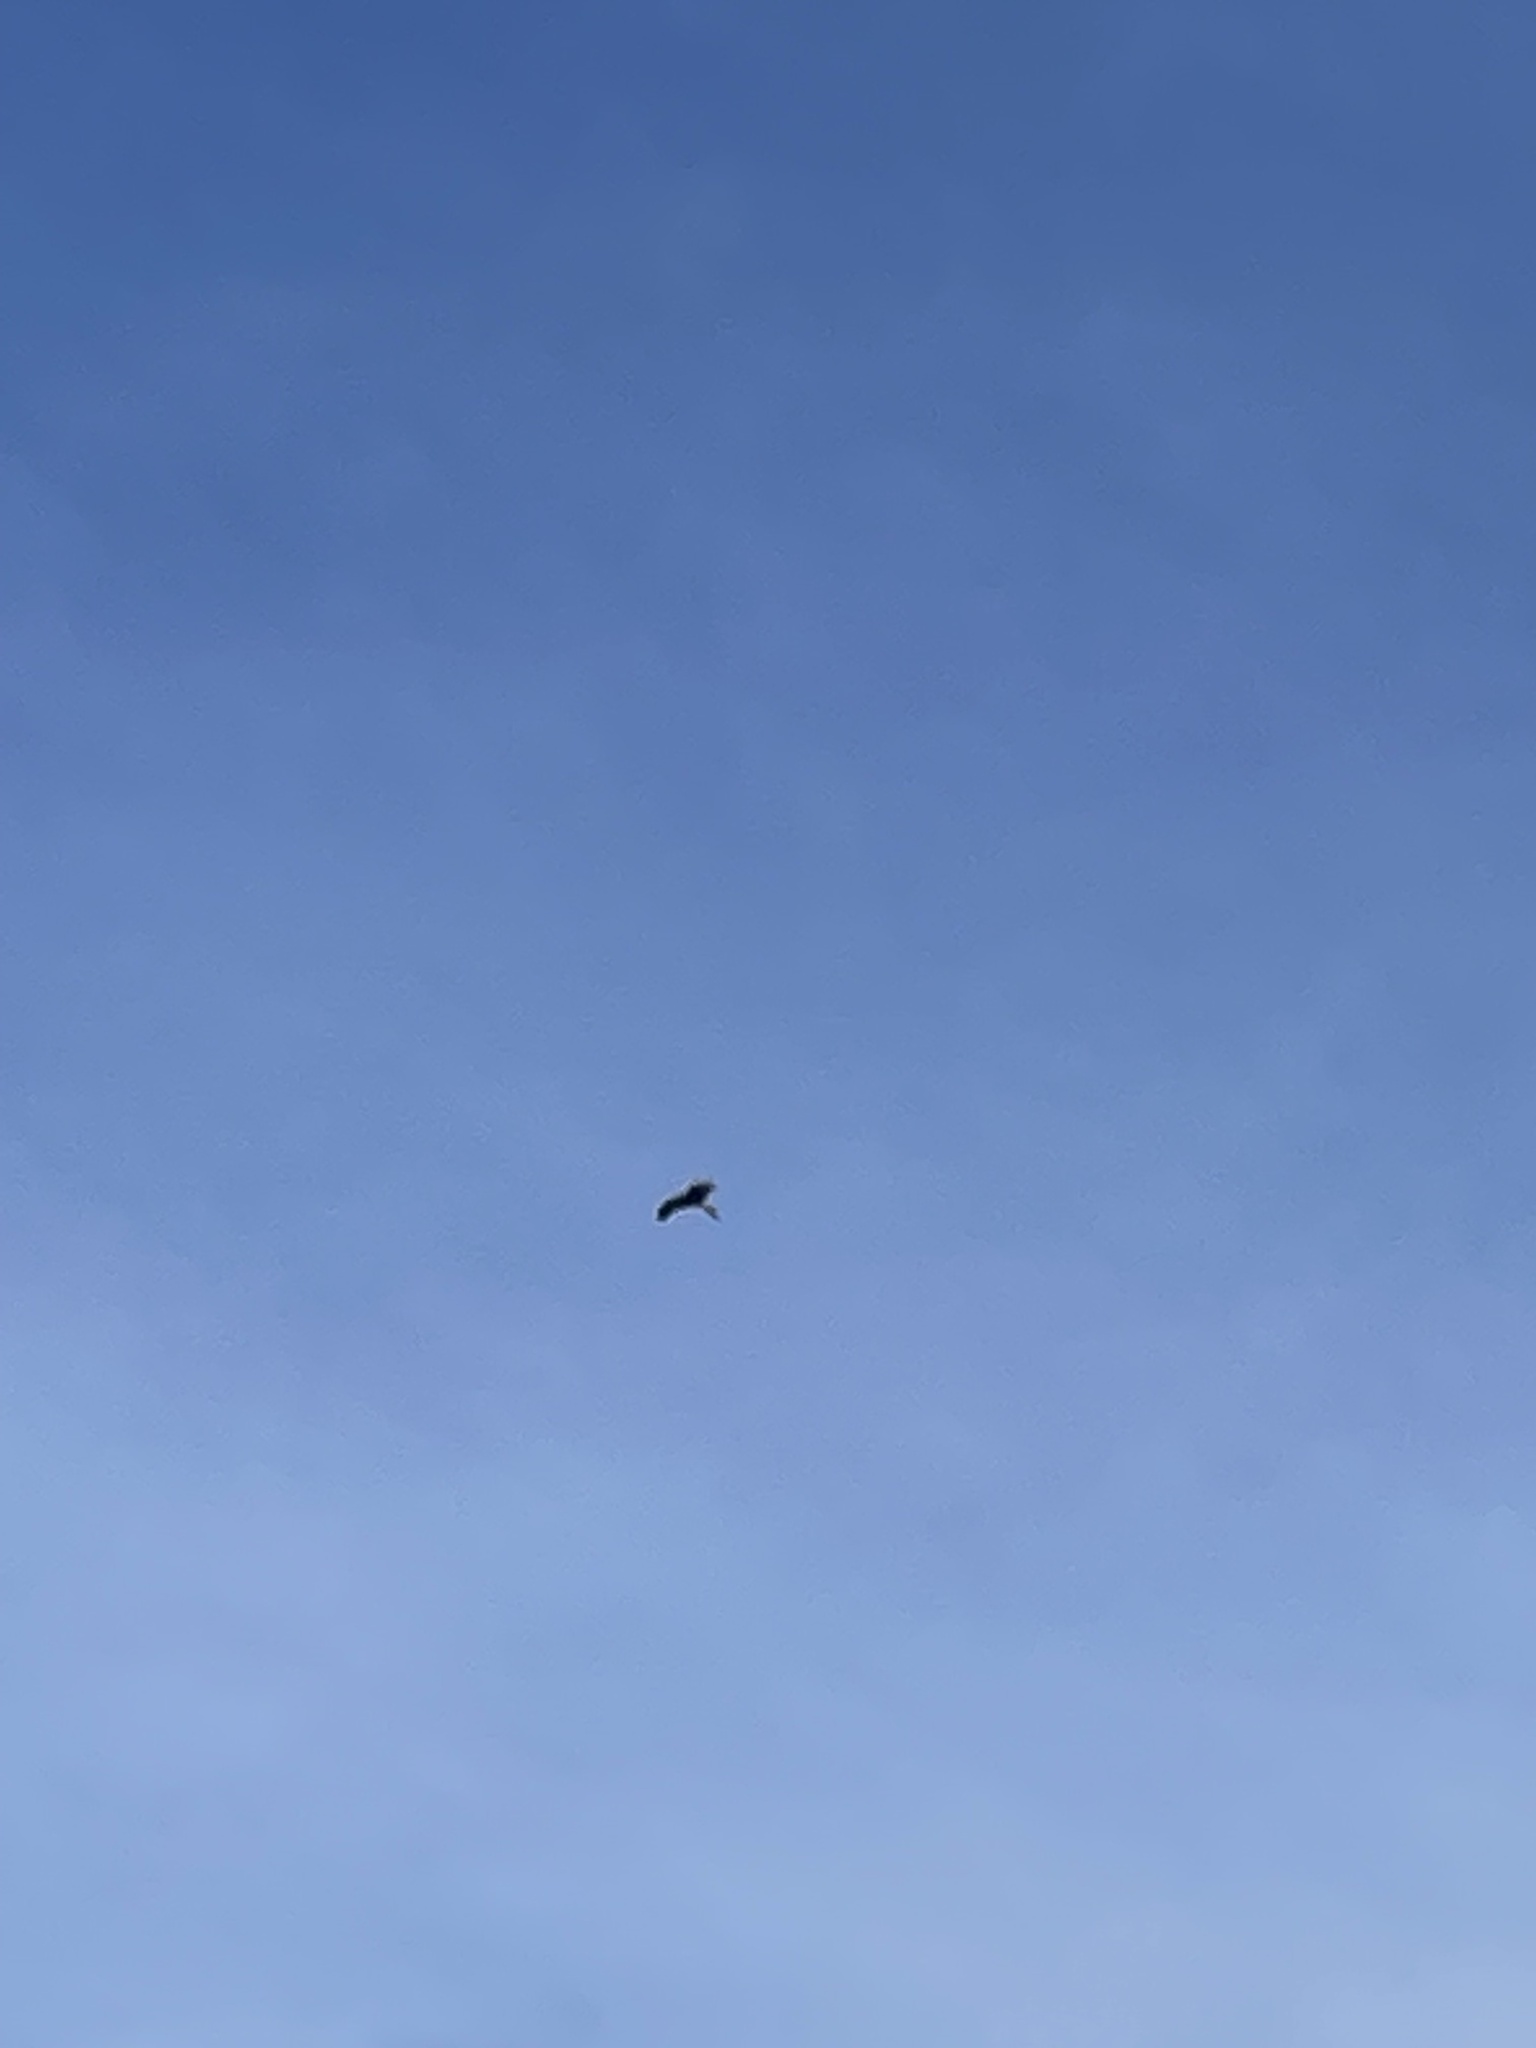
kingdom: Animalia
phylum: Chordata
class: Aves
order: Accipitriformes
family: Accipitridae
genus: Milvus
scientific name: Milvus milvus
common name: Red kite
